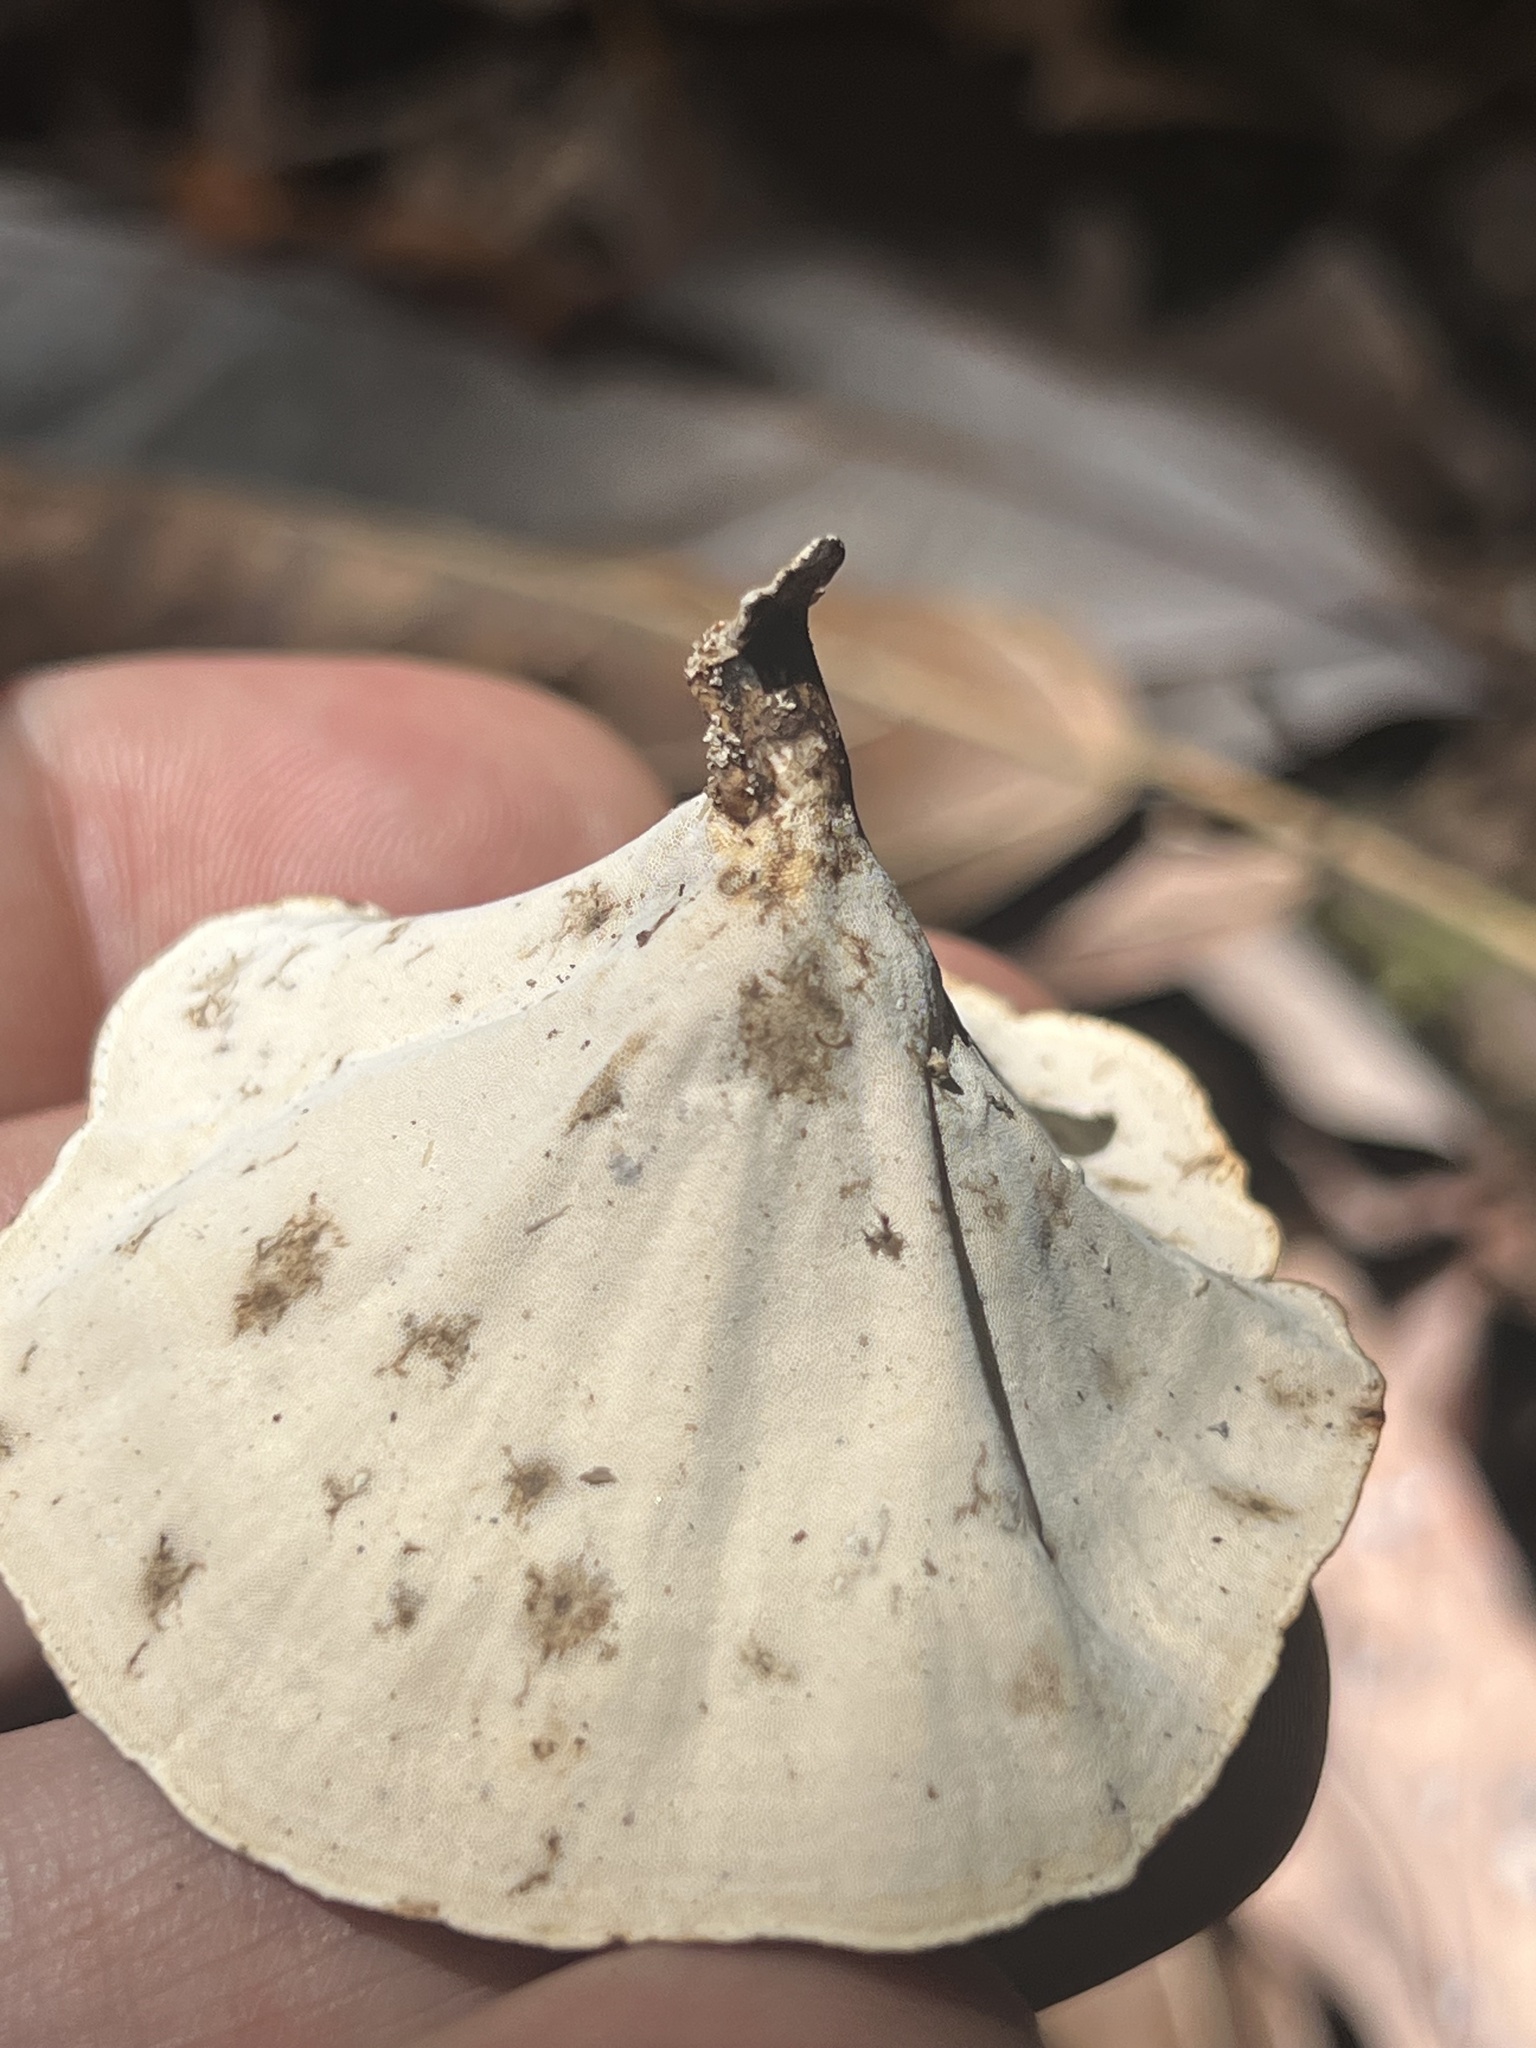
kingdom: Fungi
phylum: Basidiomycota
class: Agaricomycetes
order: Polyporales
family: Polyporaceae
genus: Microporus
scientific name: Microporus xanthopus
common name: Yellow-stemmed micropore
